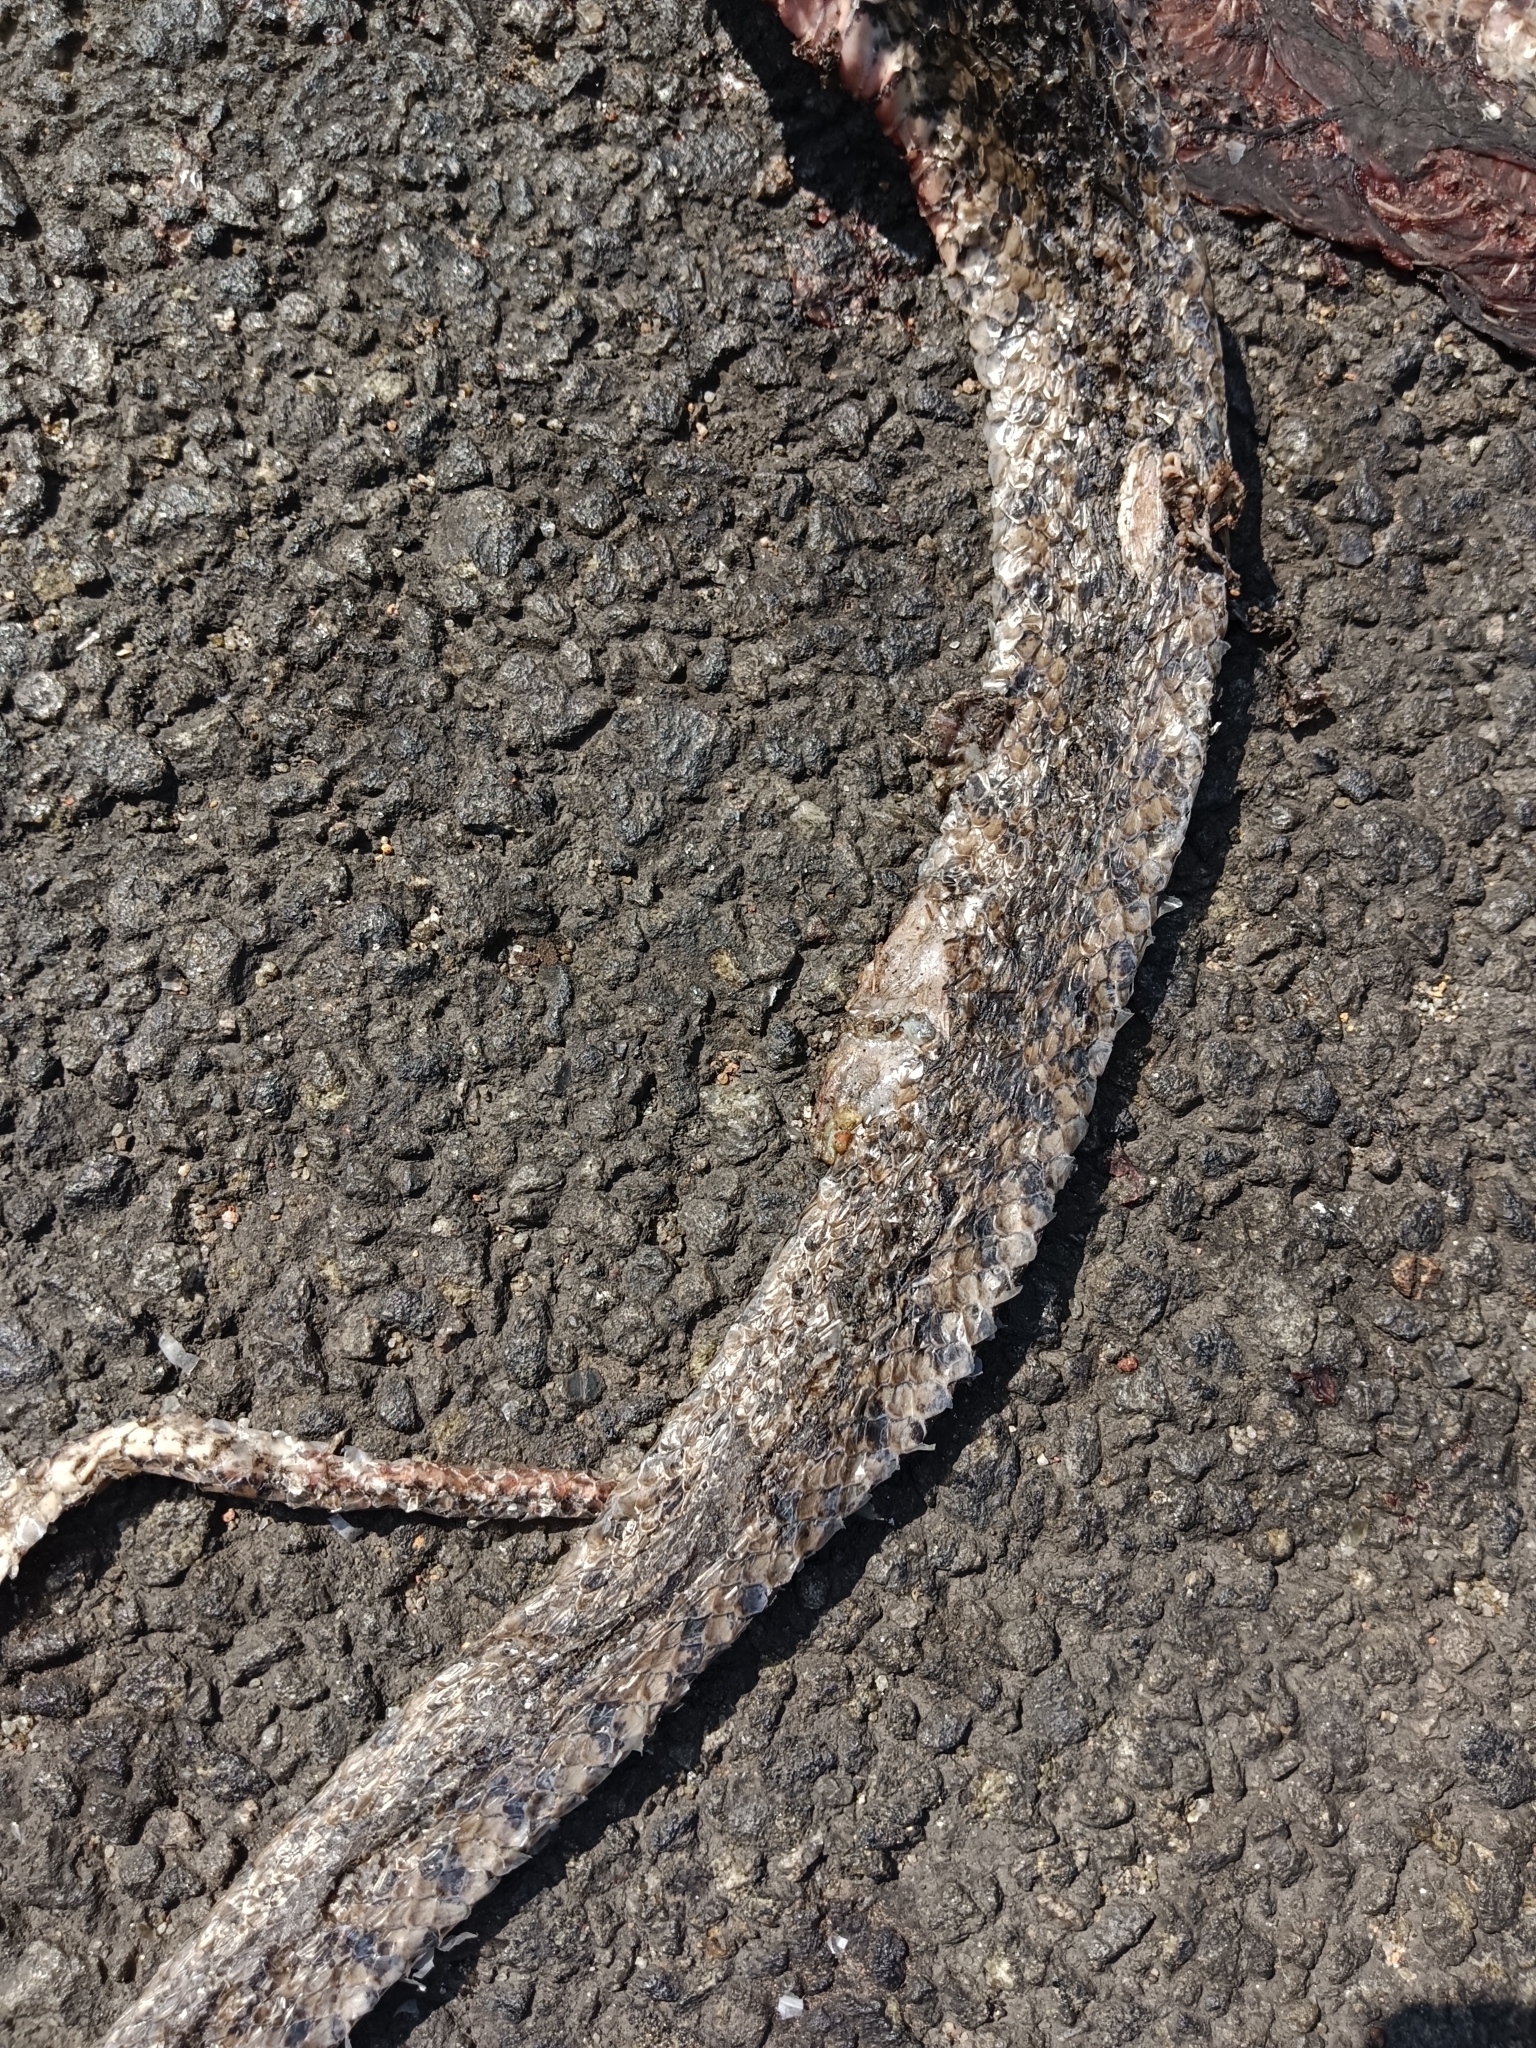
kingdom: Animalia
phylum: Chordata
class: Squamata
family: Colubridae
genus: Fowlea
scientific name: Fowlea piscator
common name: Asiatic water snake
